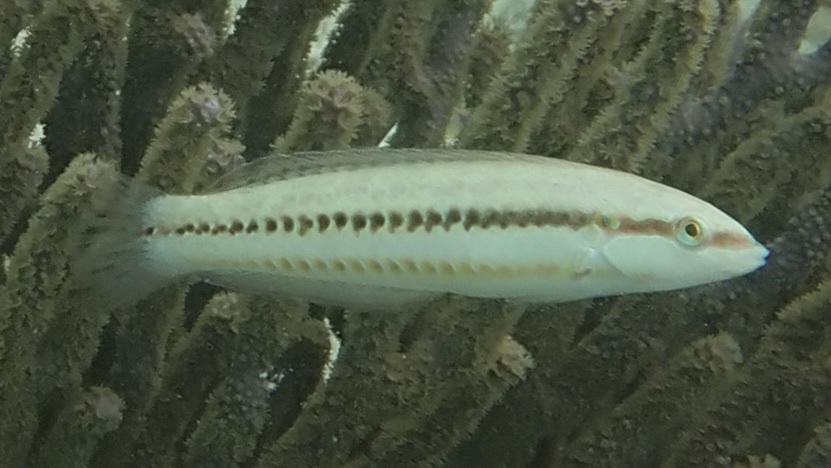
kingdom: Animalia
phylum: Chordata
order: Perciformes
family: Labridae
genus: Halichoeres
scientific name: Halichoeres bivittatus
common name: Slippery dick
